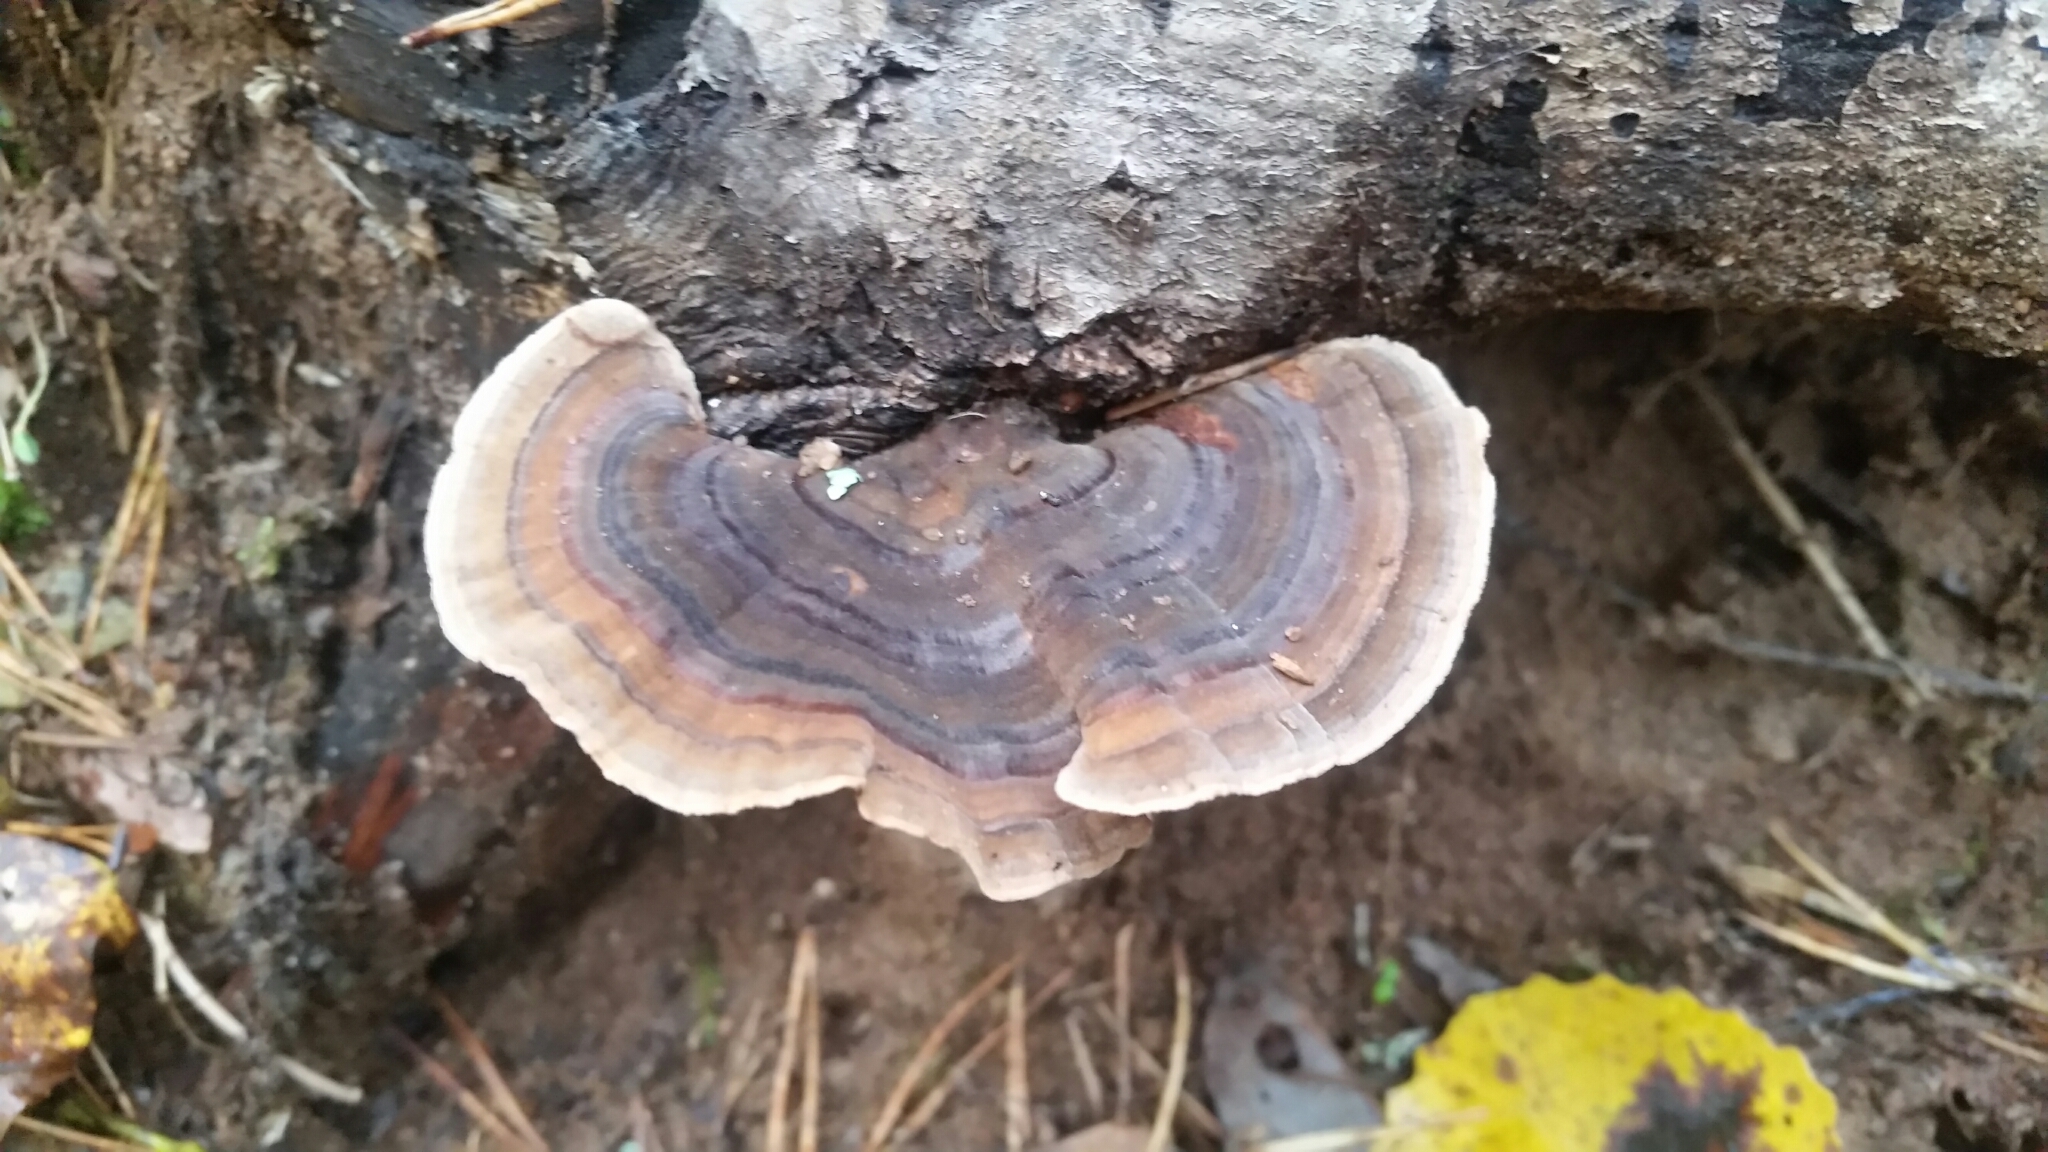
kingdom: Fungi
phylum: Basidiomycota
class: Agaricomycetes
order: Polyporales
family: Polyporaceae
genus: Trametes
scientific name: Trametes versicolor
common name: Turkeytail
